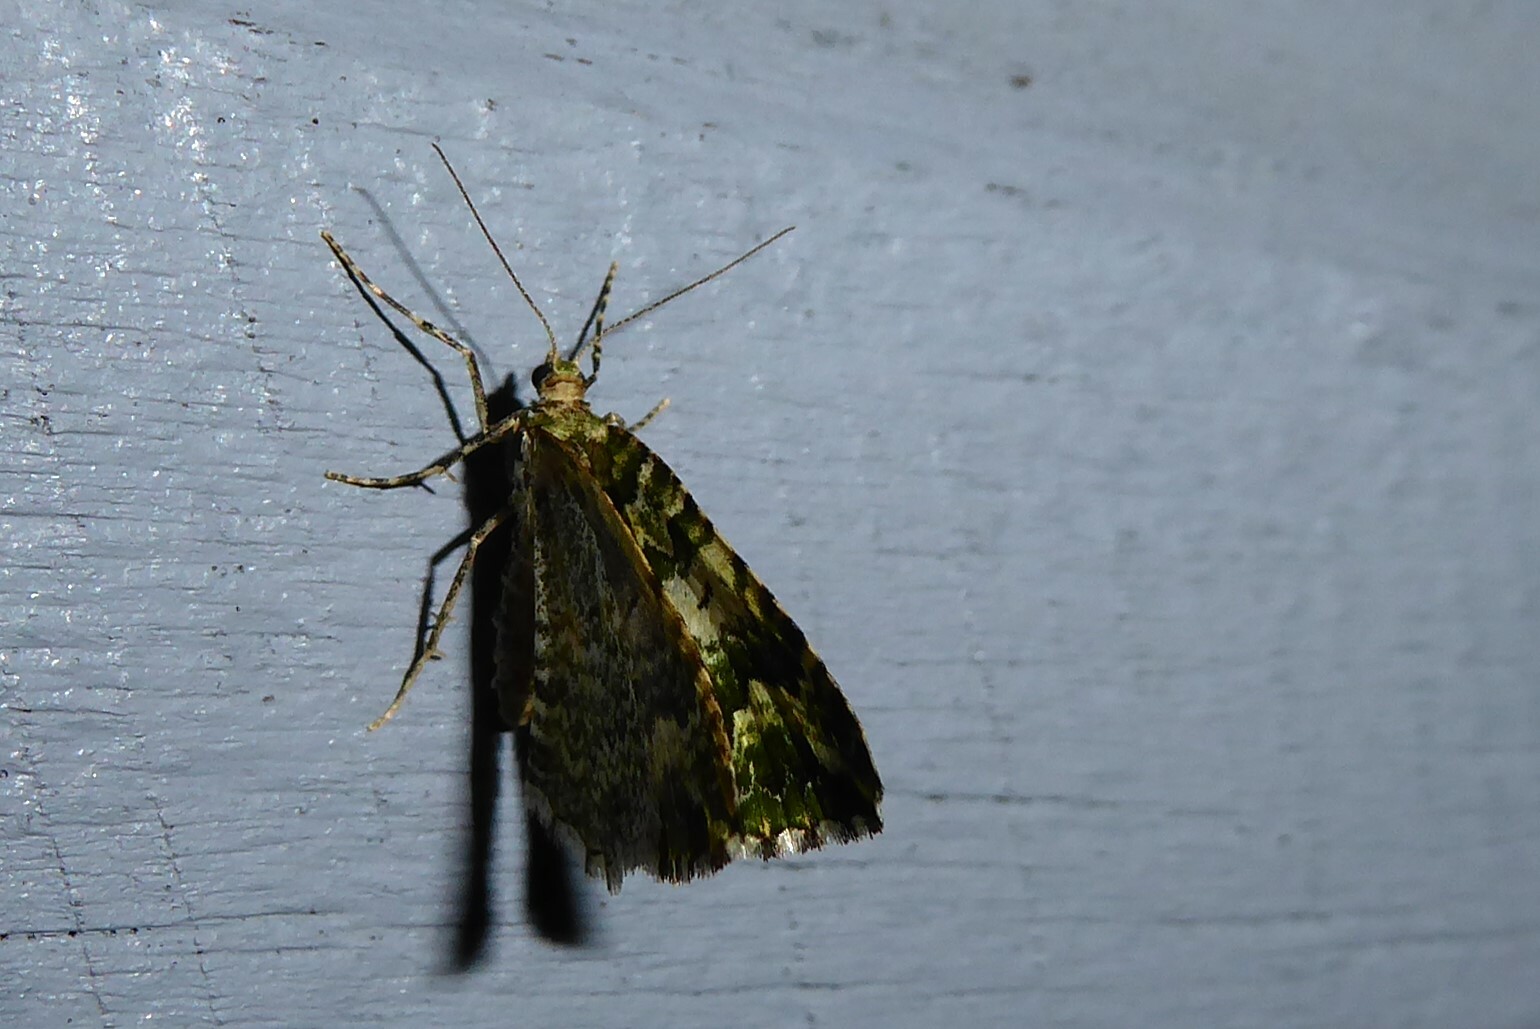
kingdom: Animalia
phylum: Arthropoda
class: Insecta
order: Lepidoptera
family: Geometridae
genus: Asaphodes
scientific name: Asaphodes beata
